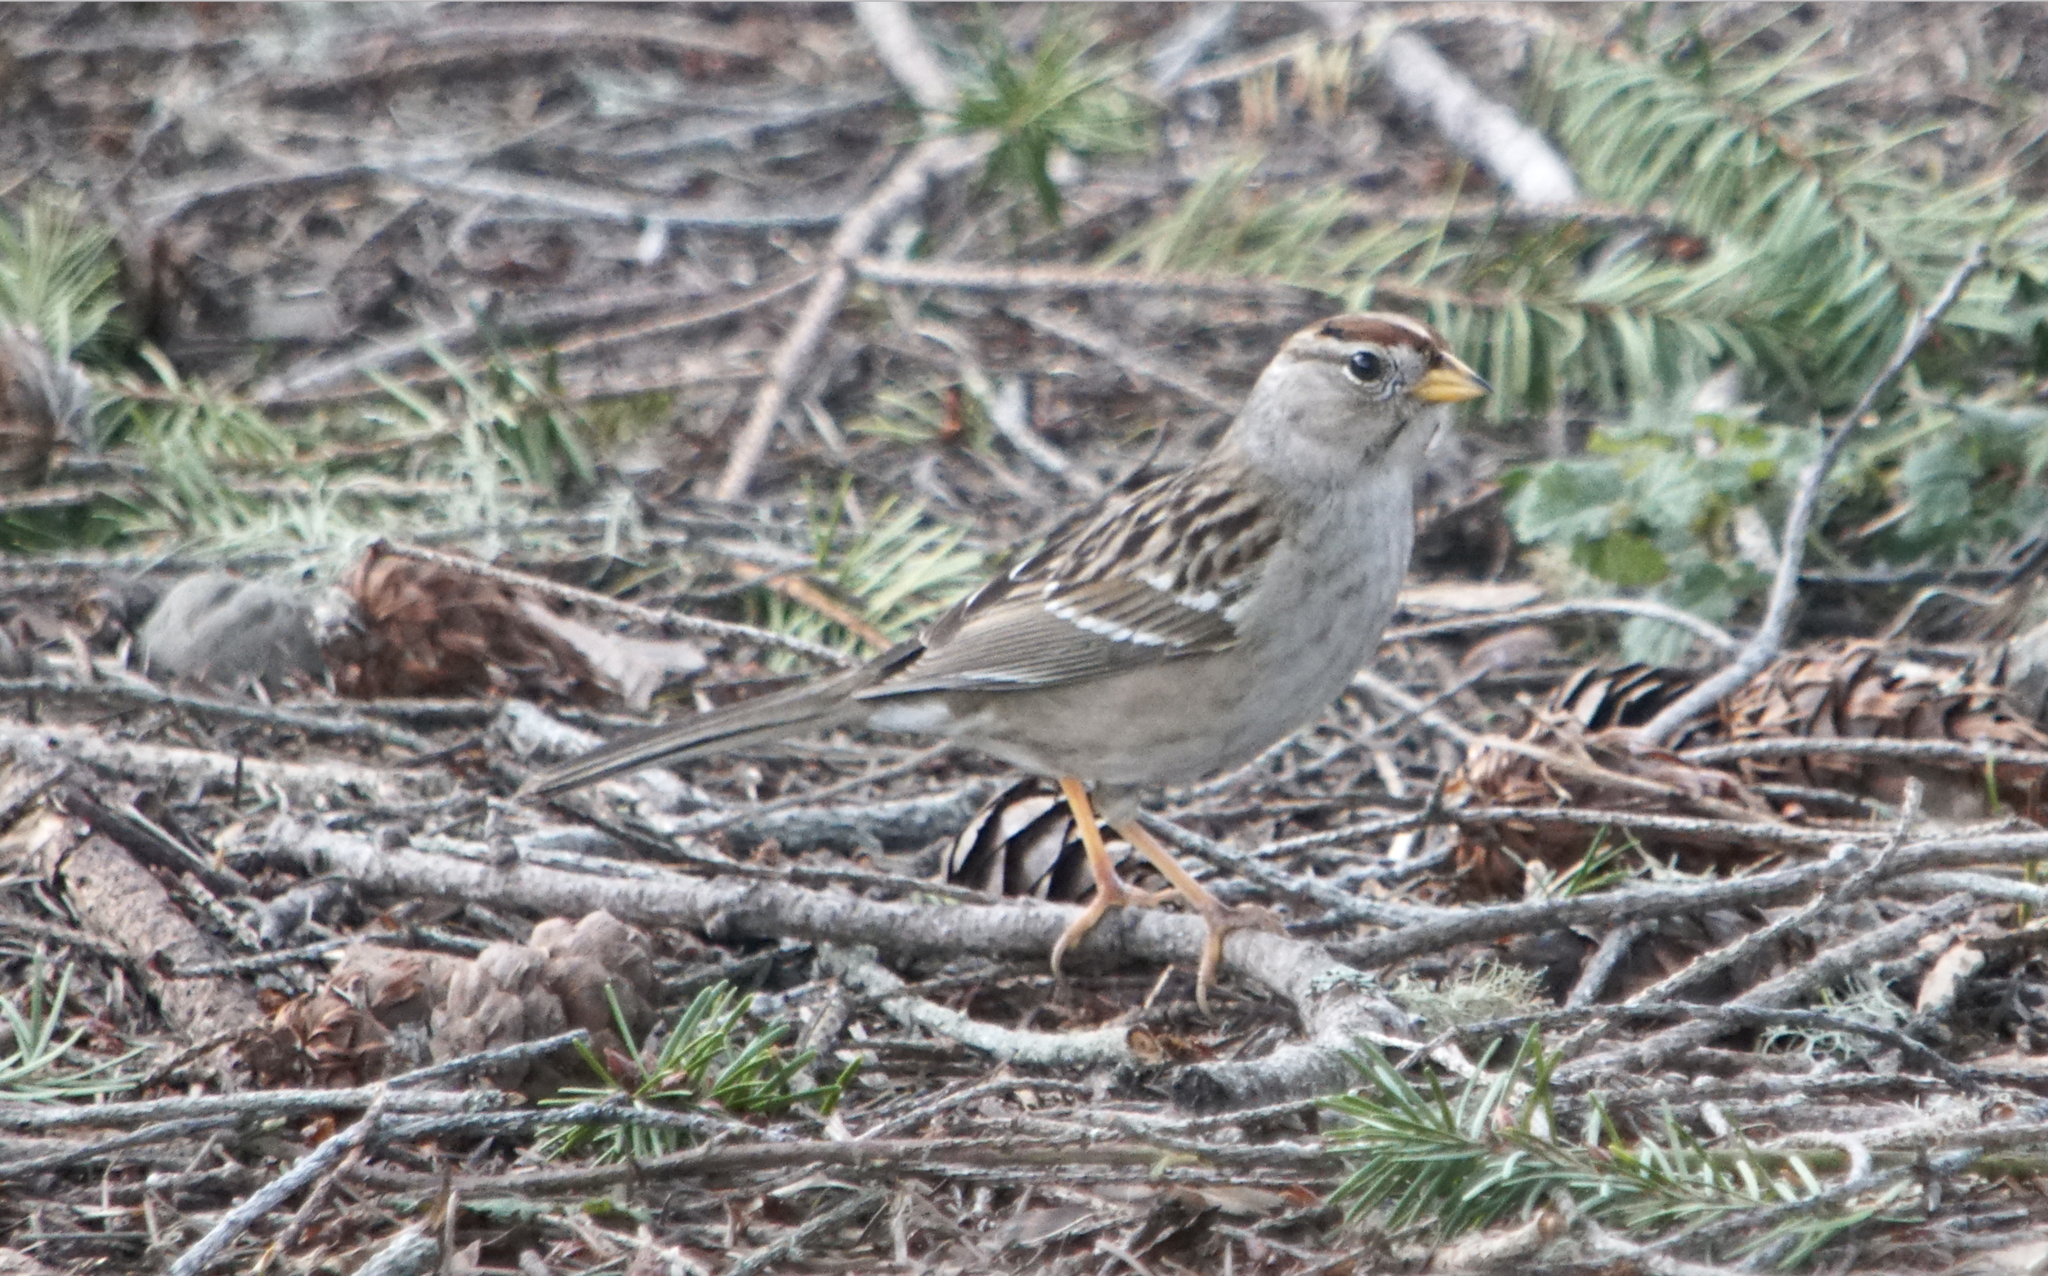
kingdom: Animalia
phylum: Chordata
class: Aves
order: Passeriformes
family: Passerellidae
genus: Zonotrichia
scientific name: Zonotrichia leucophrys
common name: White-crowned sparrow
